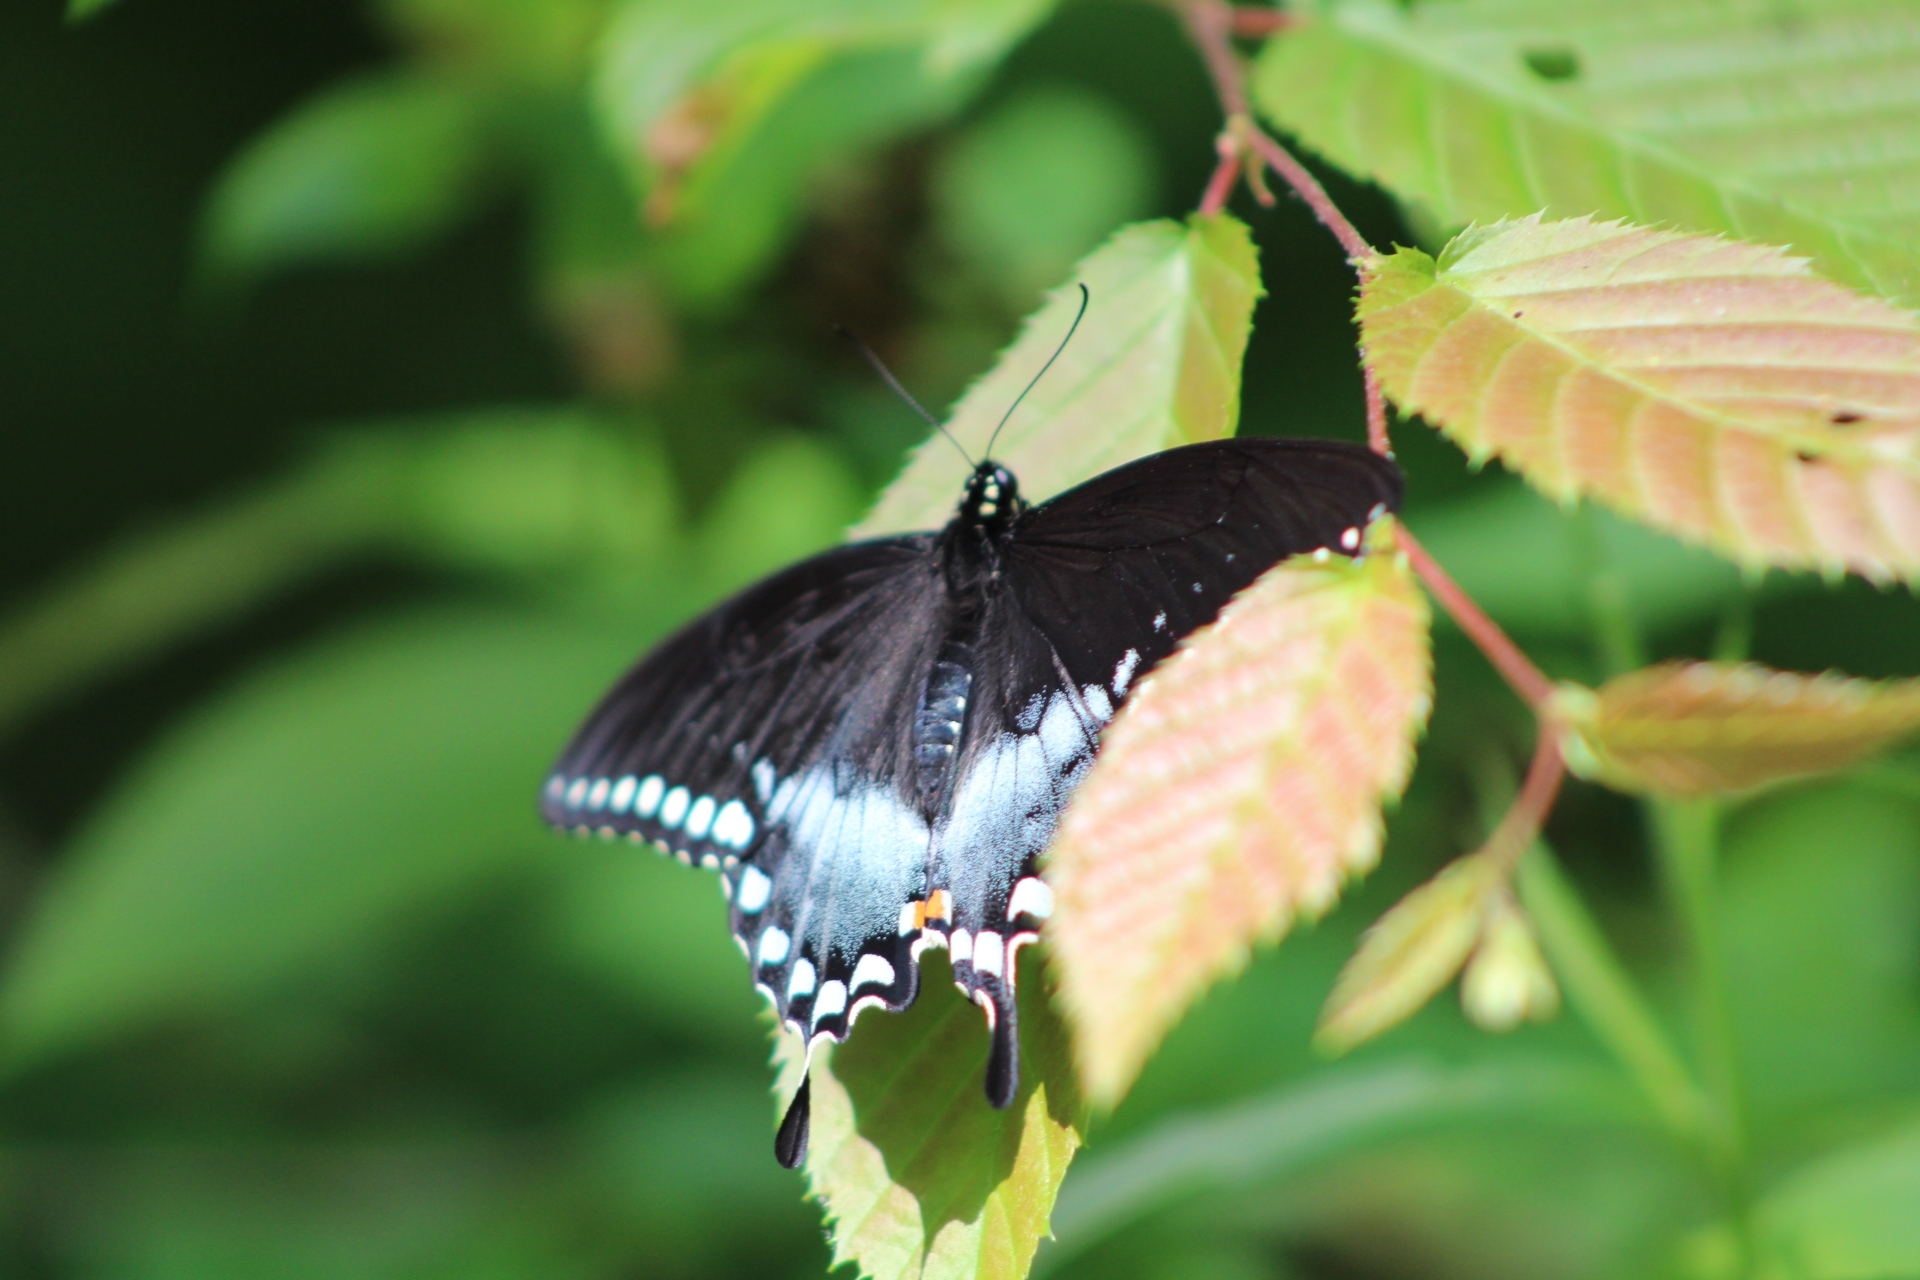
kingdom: Animalia
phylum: Arthropoda
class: Insecta
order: Lepidoptera
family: Papilionidae
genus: Papilio
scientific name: Papilio troilus
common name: Spicebush swallowtail
